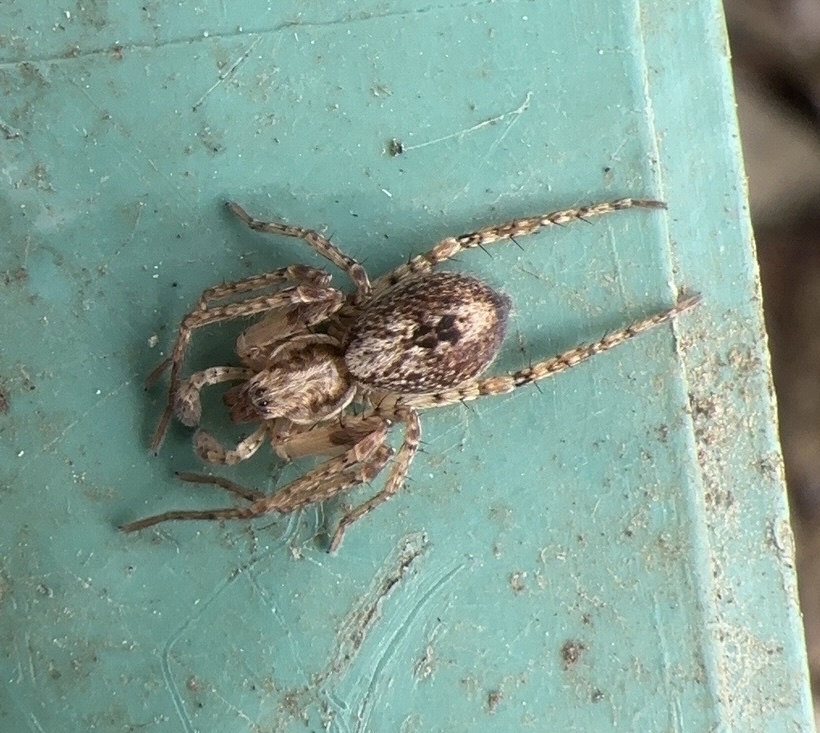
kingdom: Animalia
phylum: Arthropoda
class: Arachnida
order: Araneae
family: Anyphaenidae
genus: Anyphaena
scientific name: Anyphaena accentuata
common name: Buzzing spider
